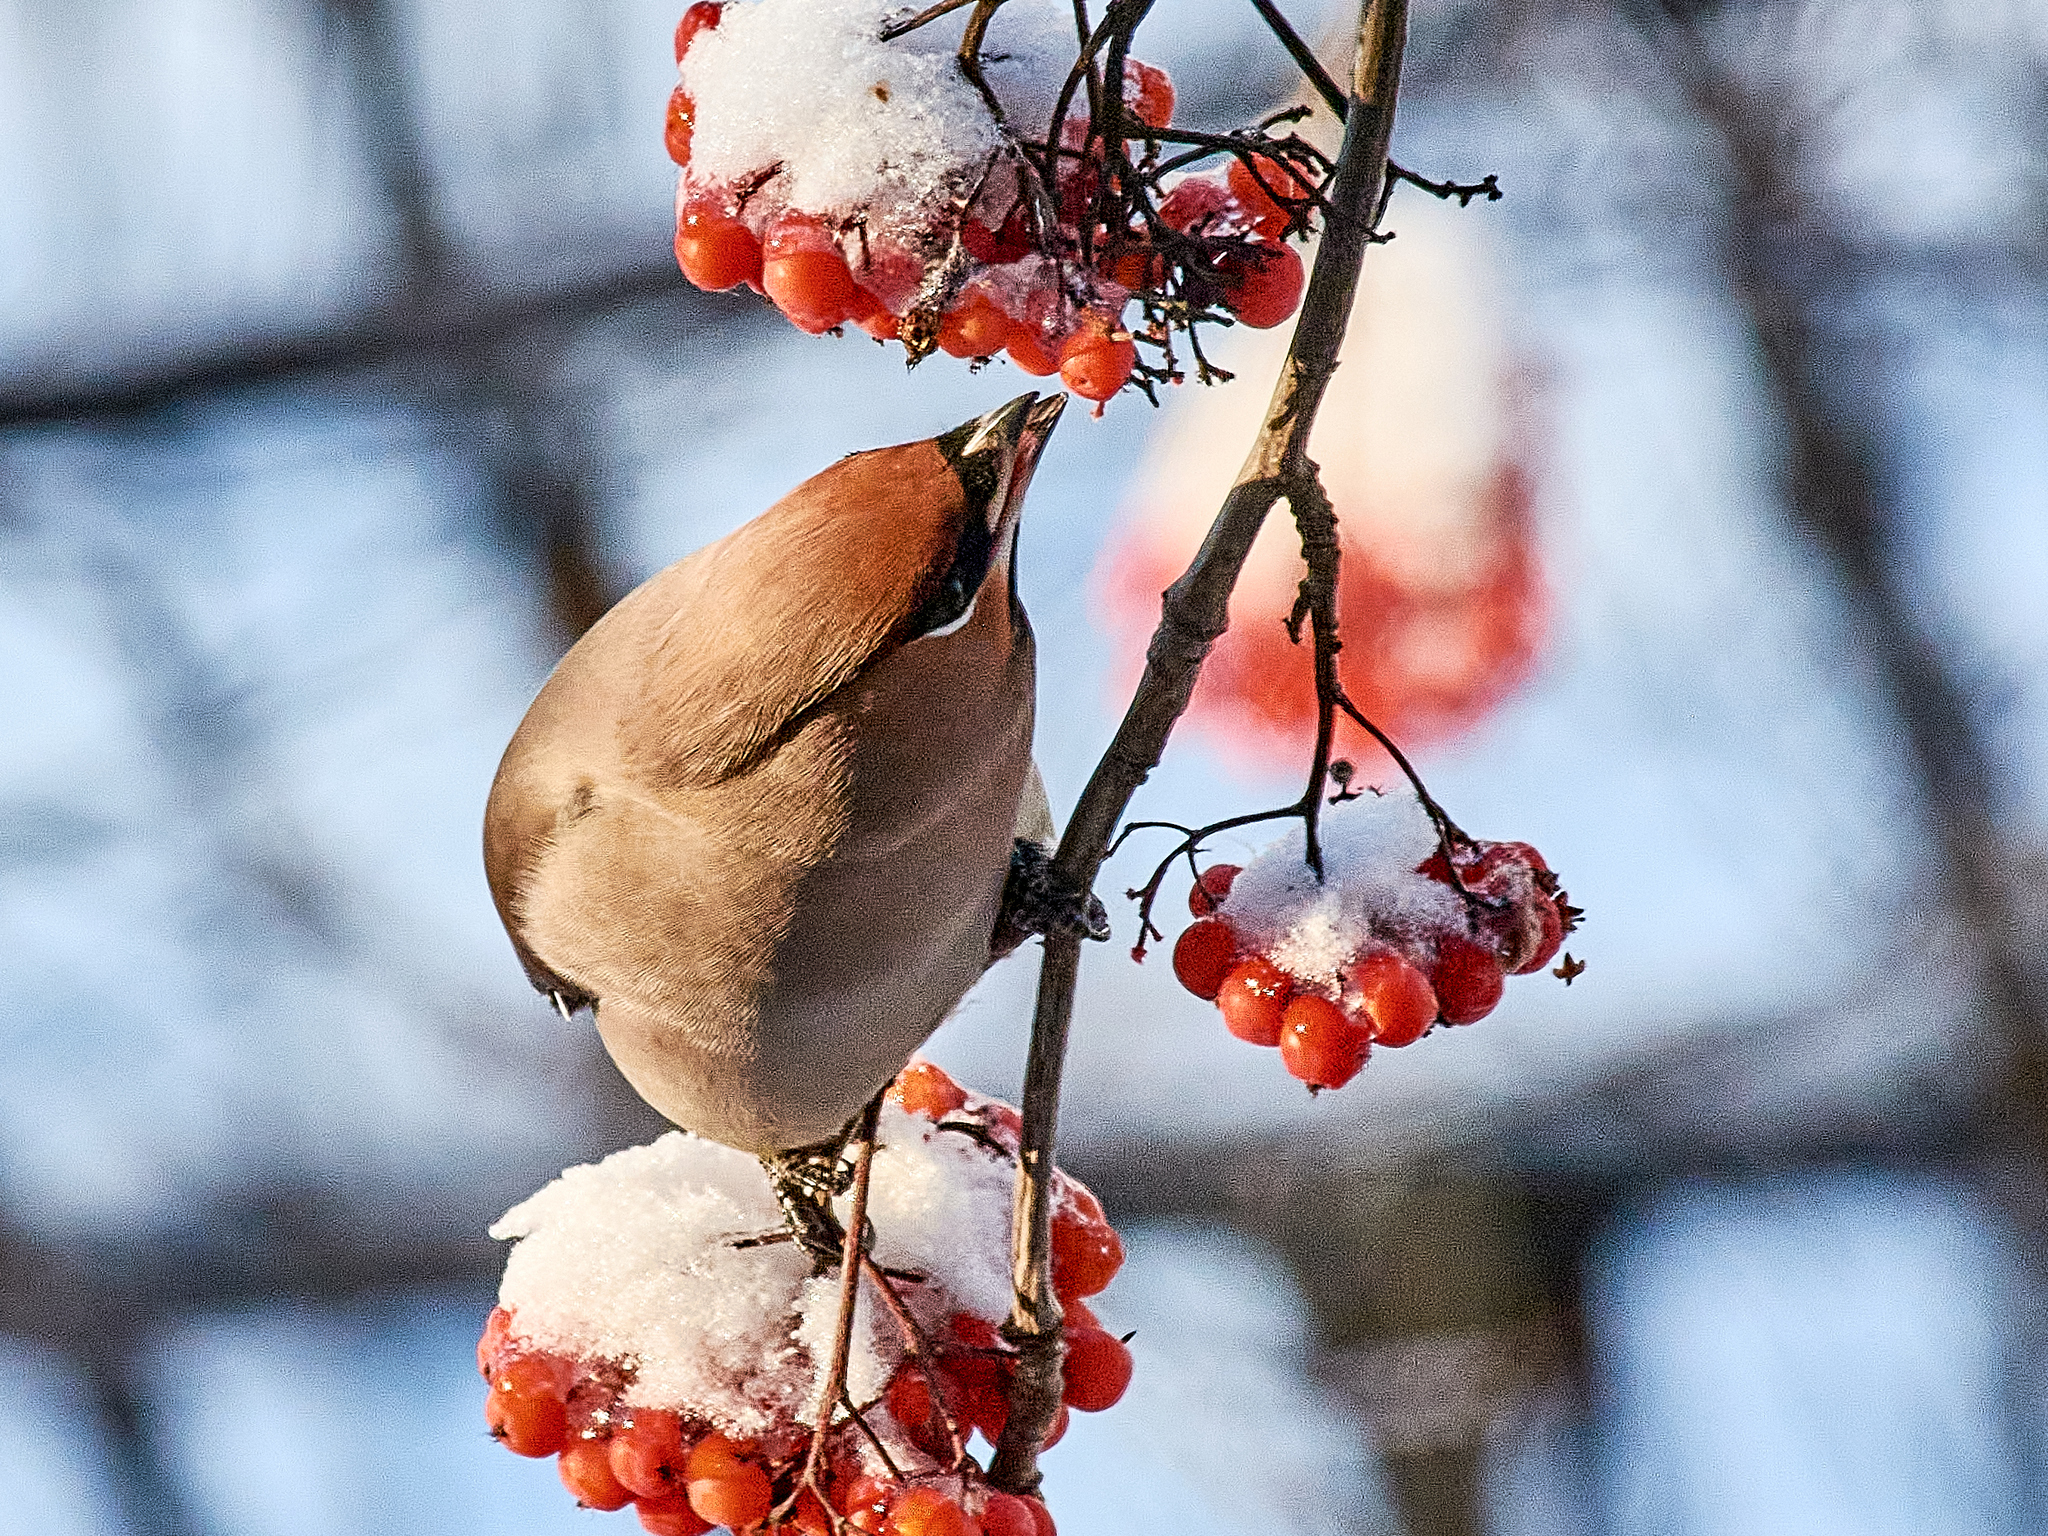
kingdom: Animalia
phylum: Chordata
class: Aves
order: Passeriformes
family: Bombycillidae
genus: Bombycilla
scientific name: Bombycilla garrulus
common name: Bohemian waxwing
